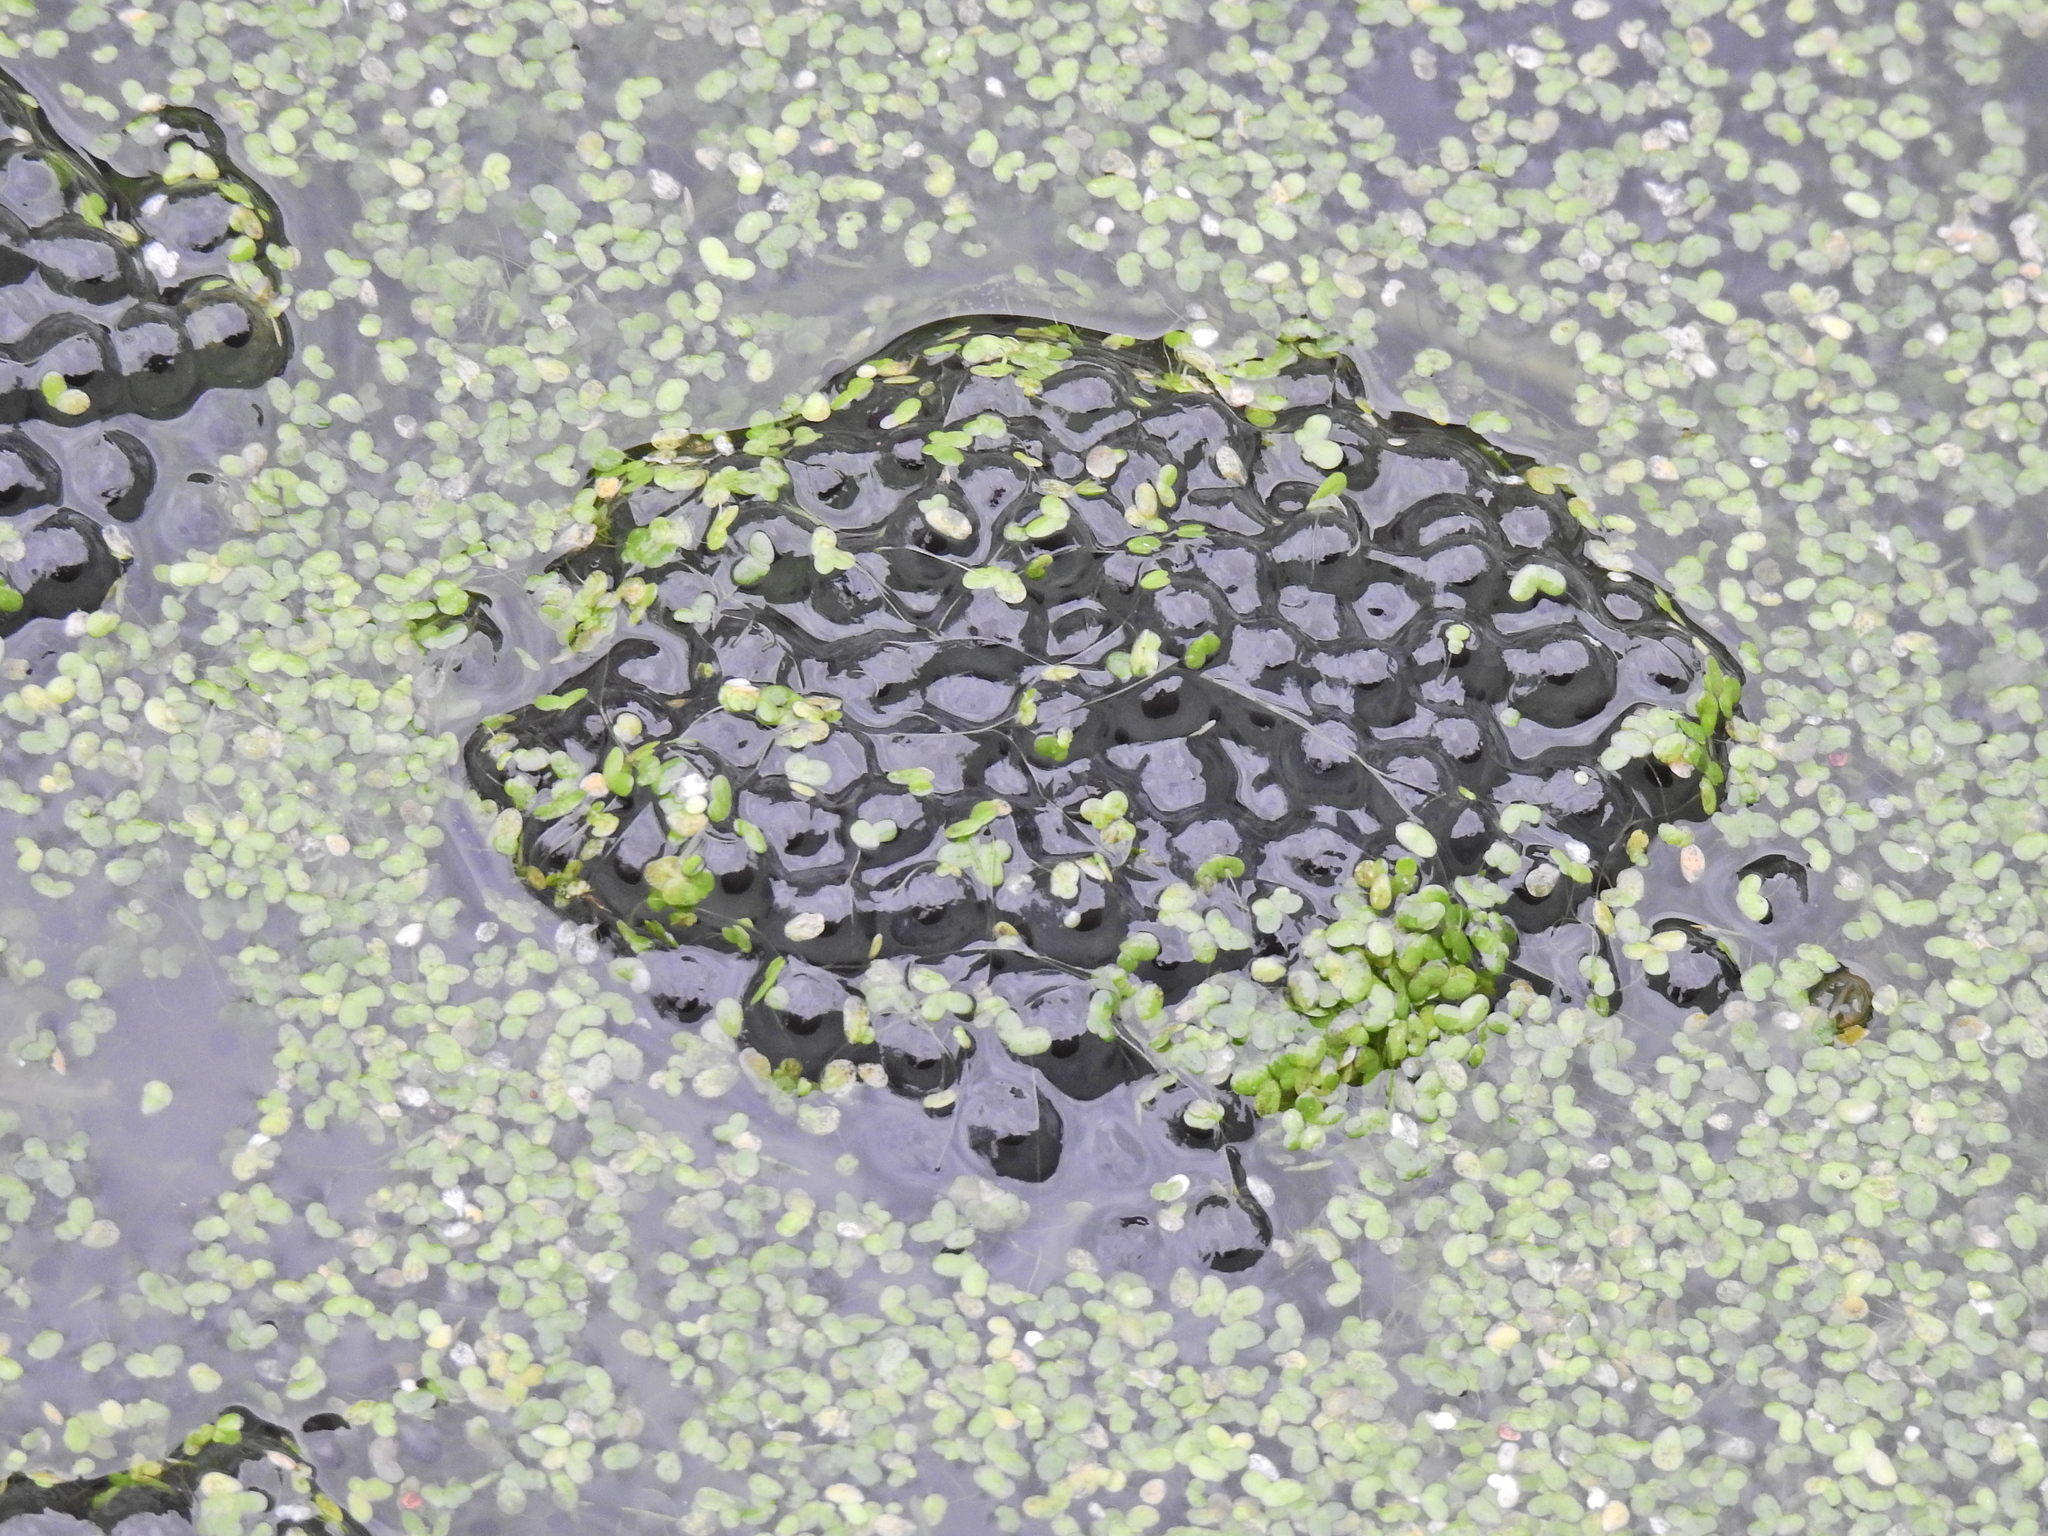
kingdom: Animalia
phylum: Chordata
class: Amphibia
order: Anura
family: Ranidae
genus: Rana
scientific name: Rana temporaria
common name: Common frog
